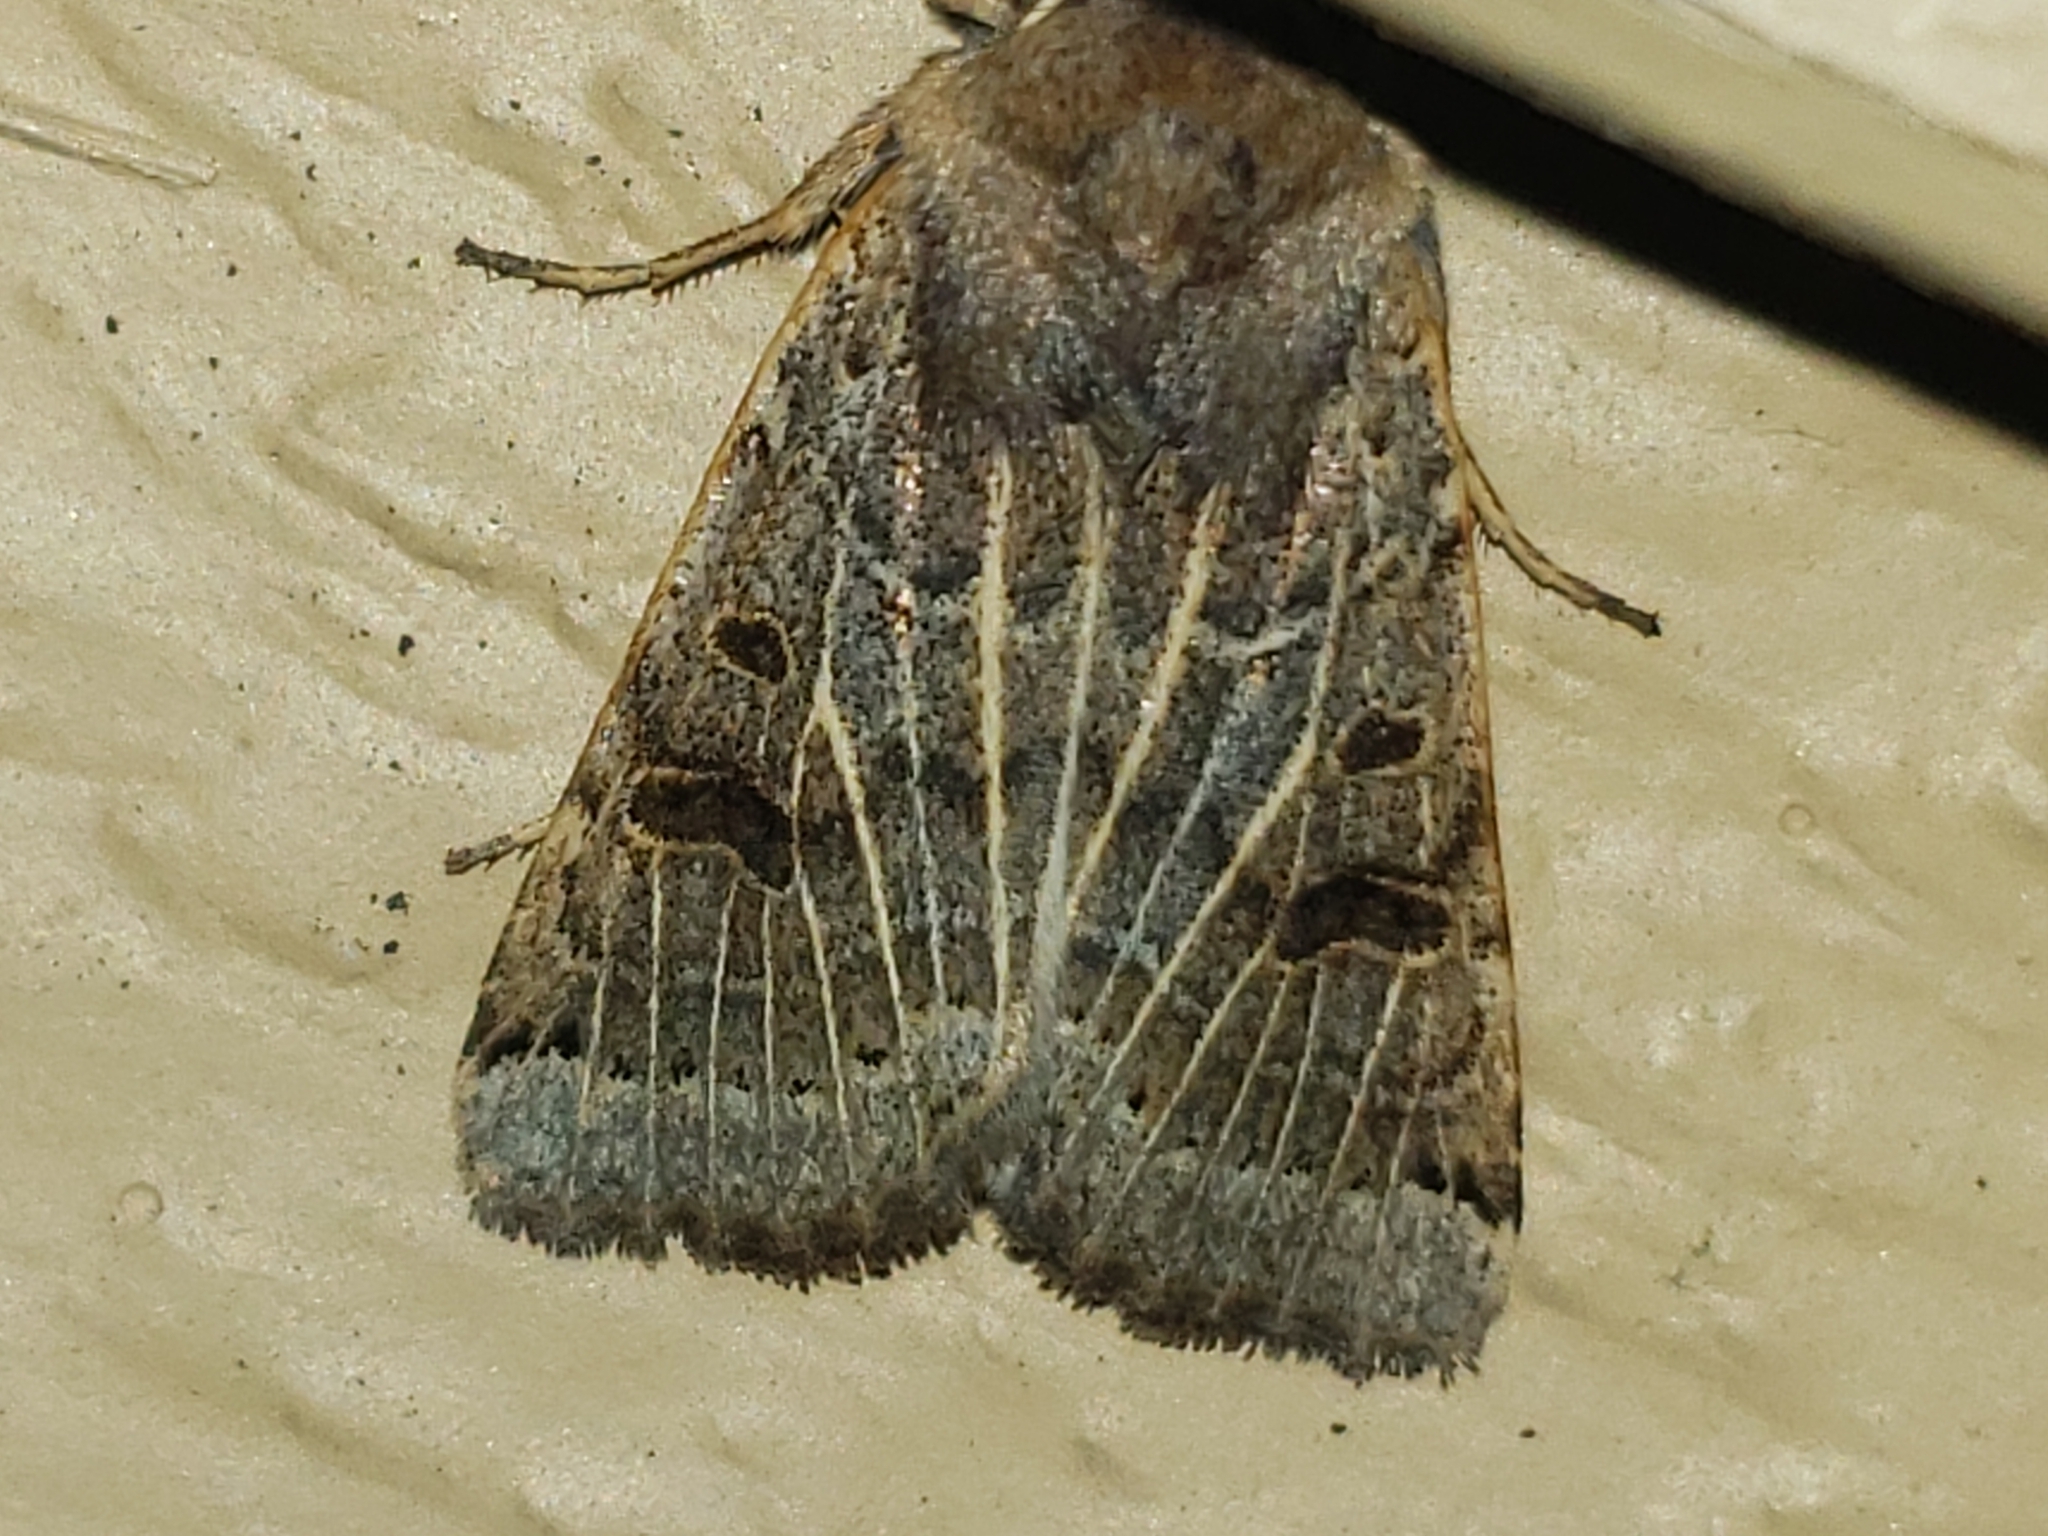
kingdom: Animalia
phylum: Arthropoda
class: Insecta
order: Lepidoptera
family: Noctuidae
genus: Agrochola
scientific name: Agrochola lunosa
